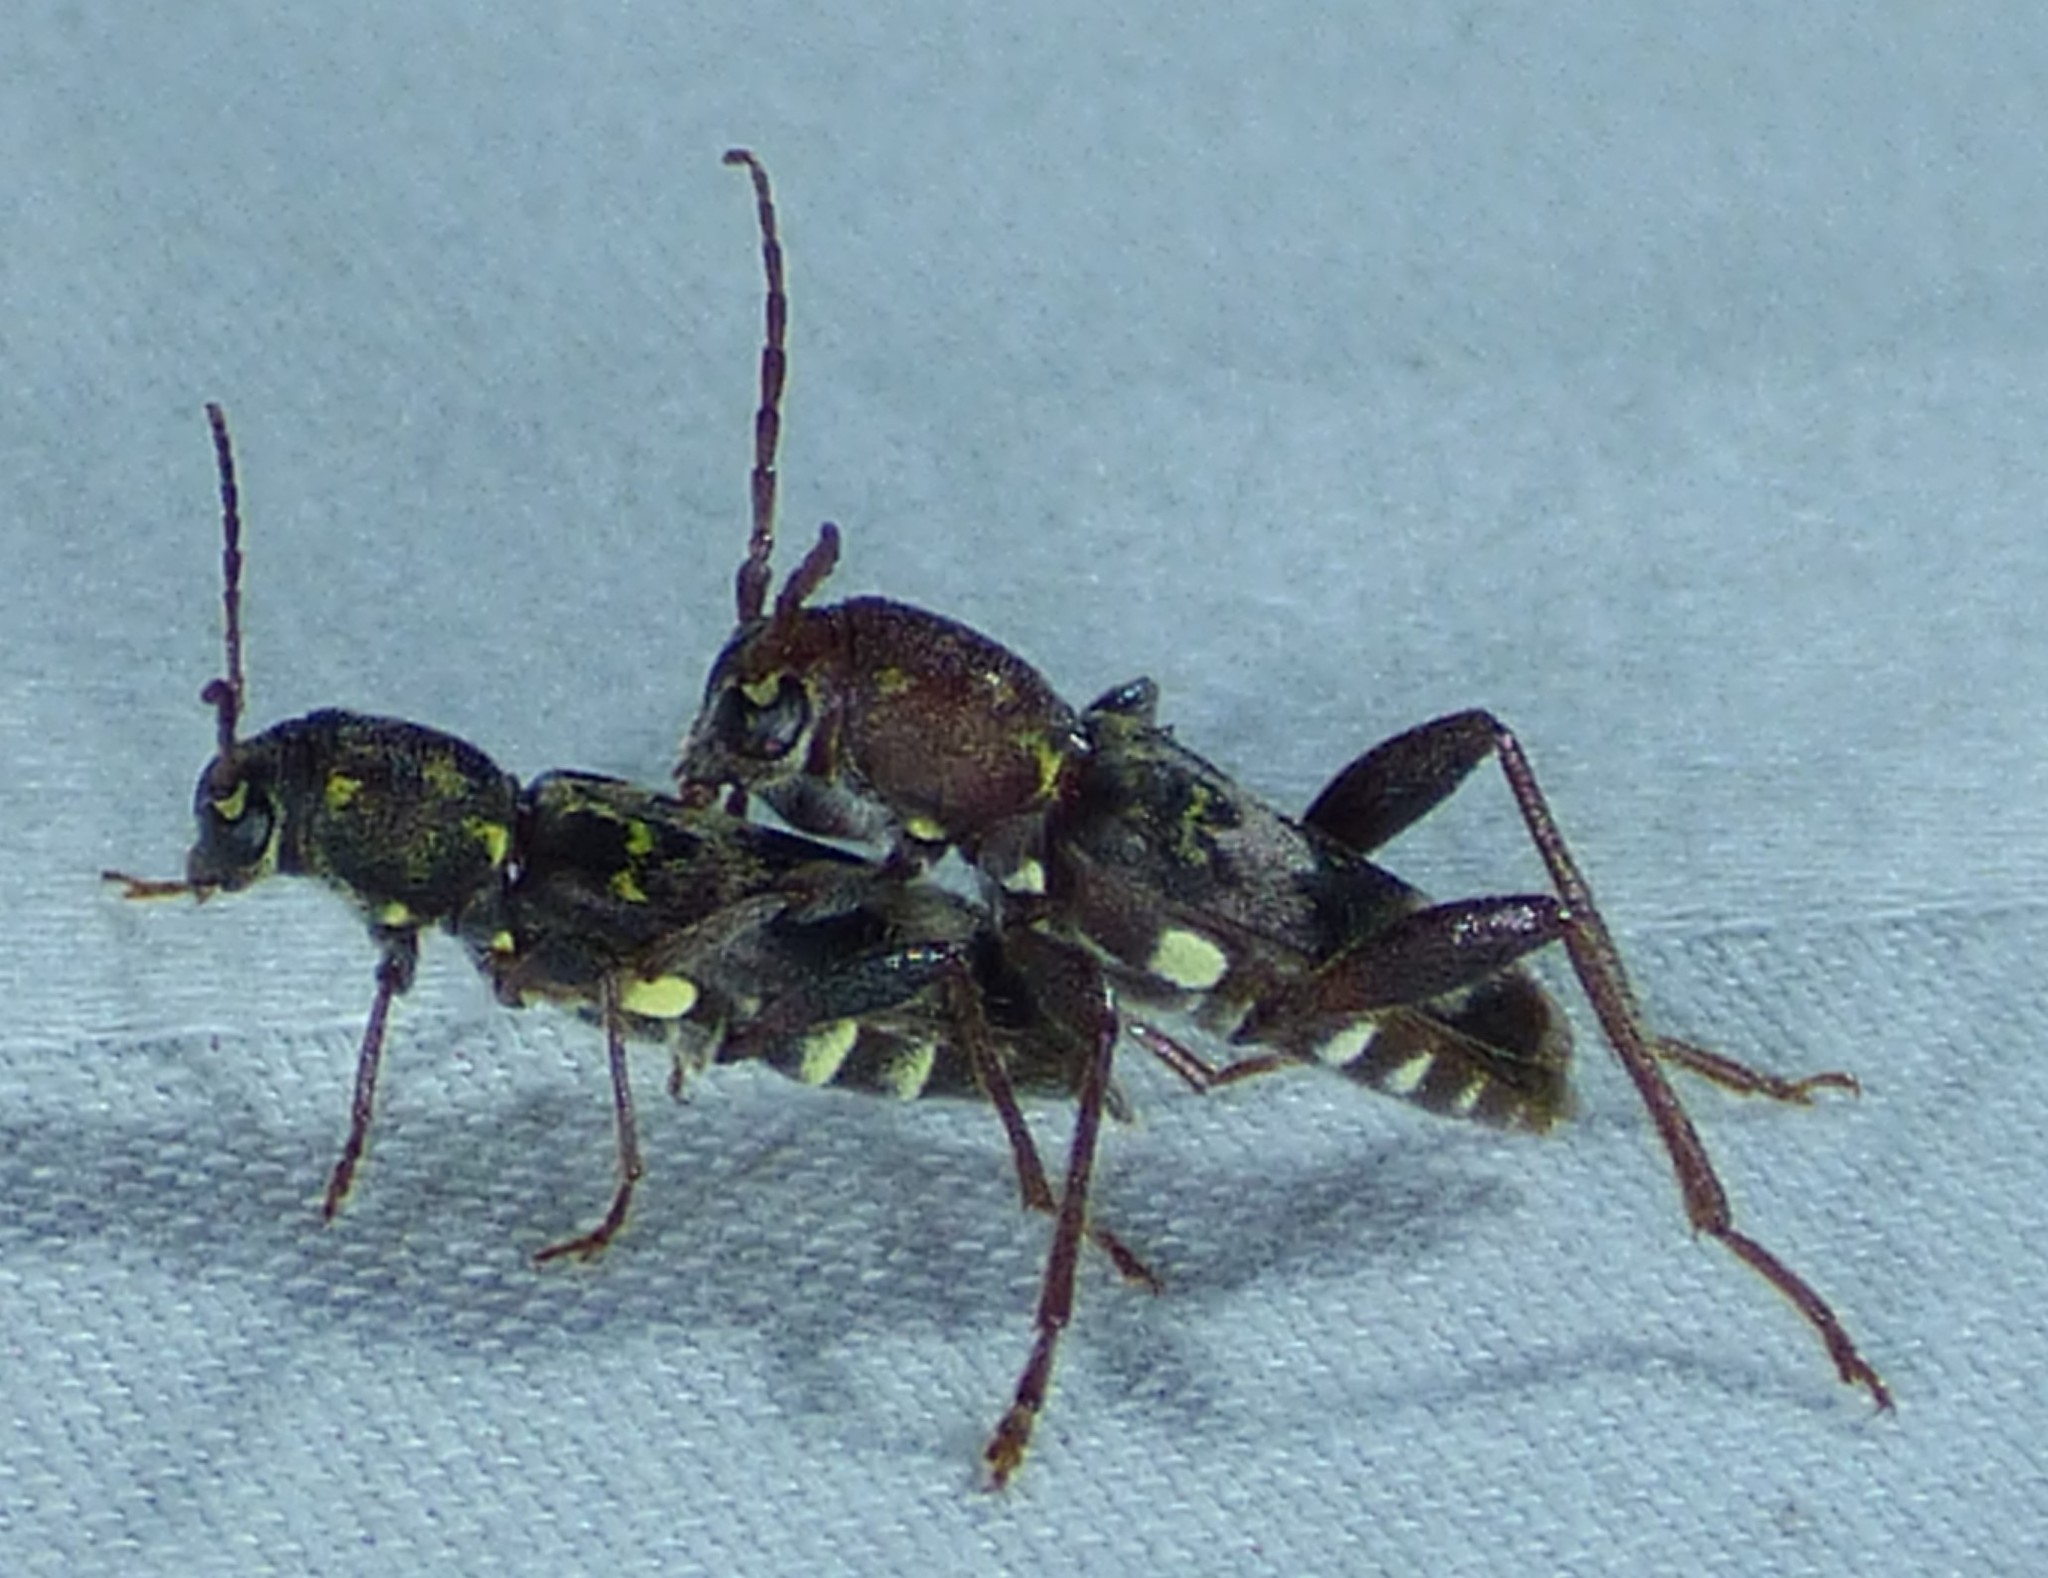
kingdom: Animalia
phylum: Arthropoda
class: Insecta
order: Coleoptera
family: Cerambycidae
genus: Xylotrechus
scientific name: Xylotrechus colonus
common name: Long-horned beetle
